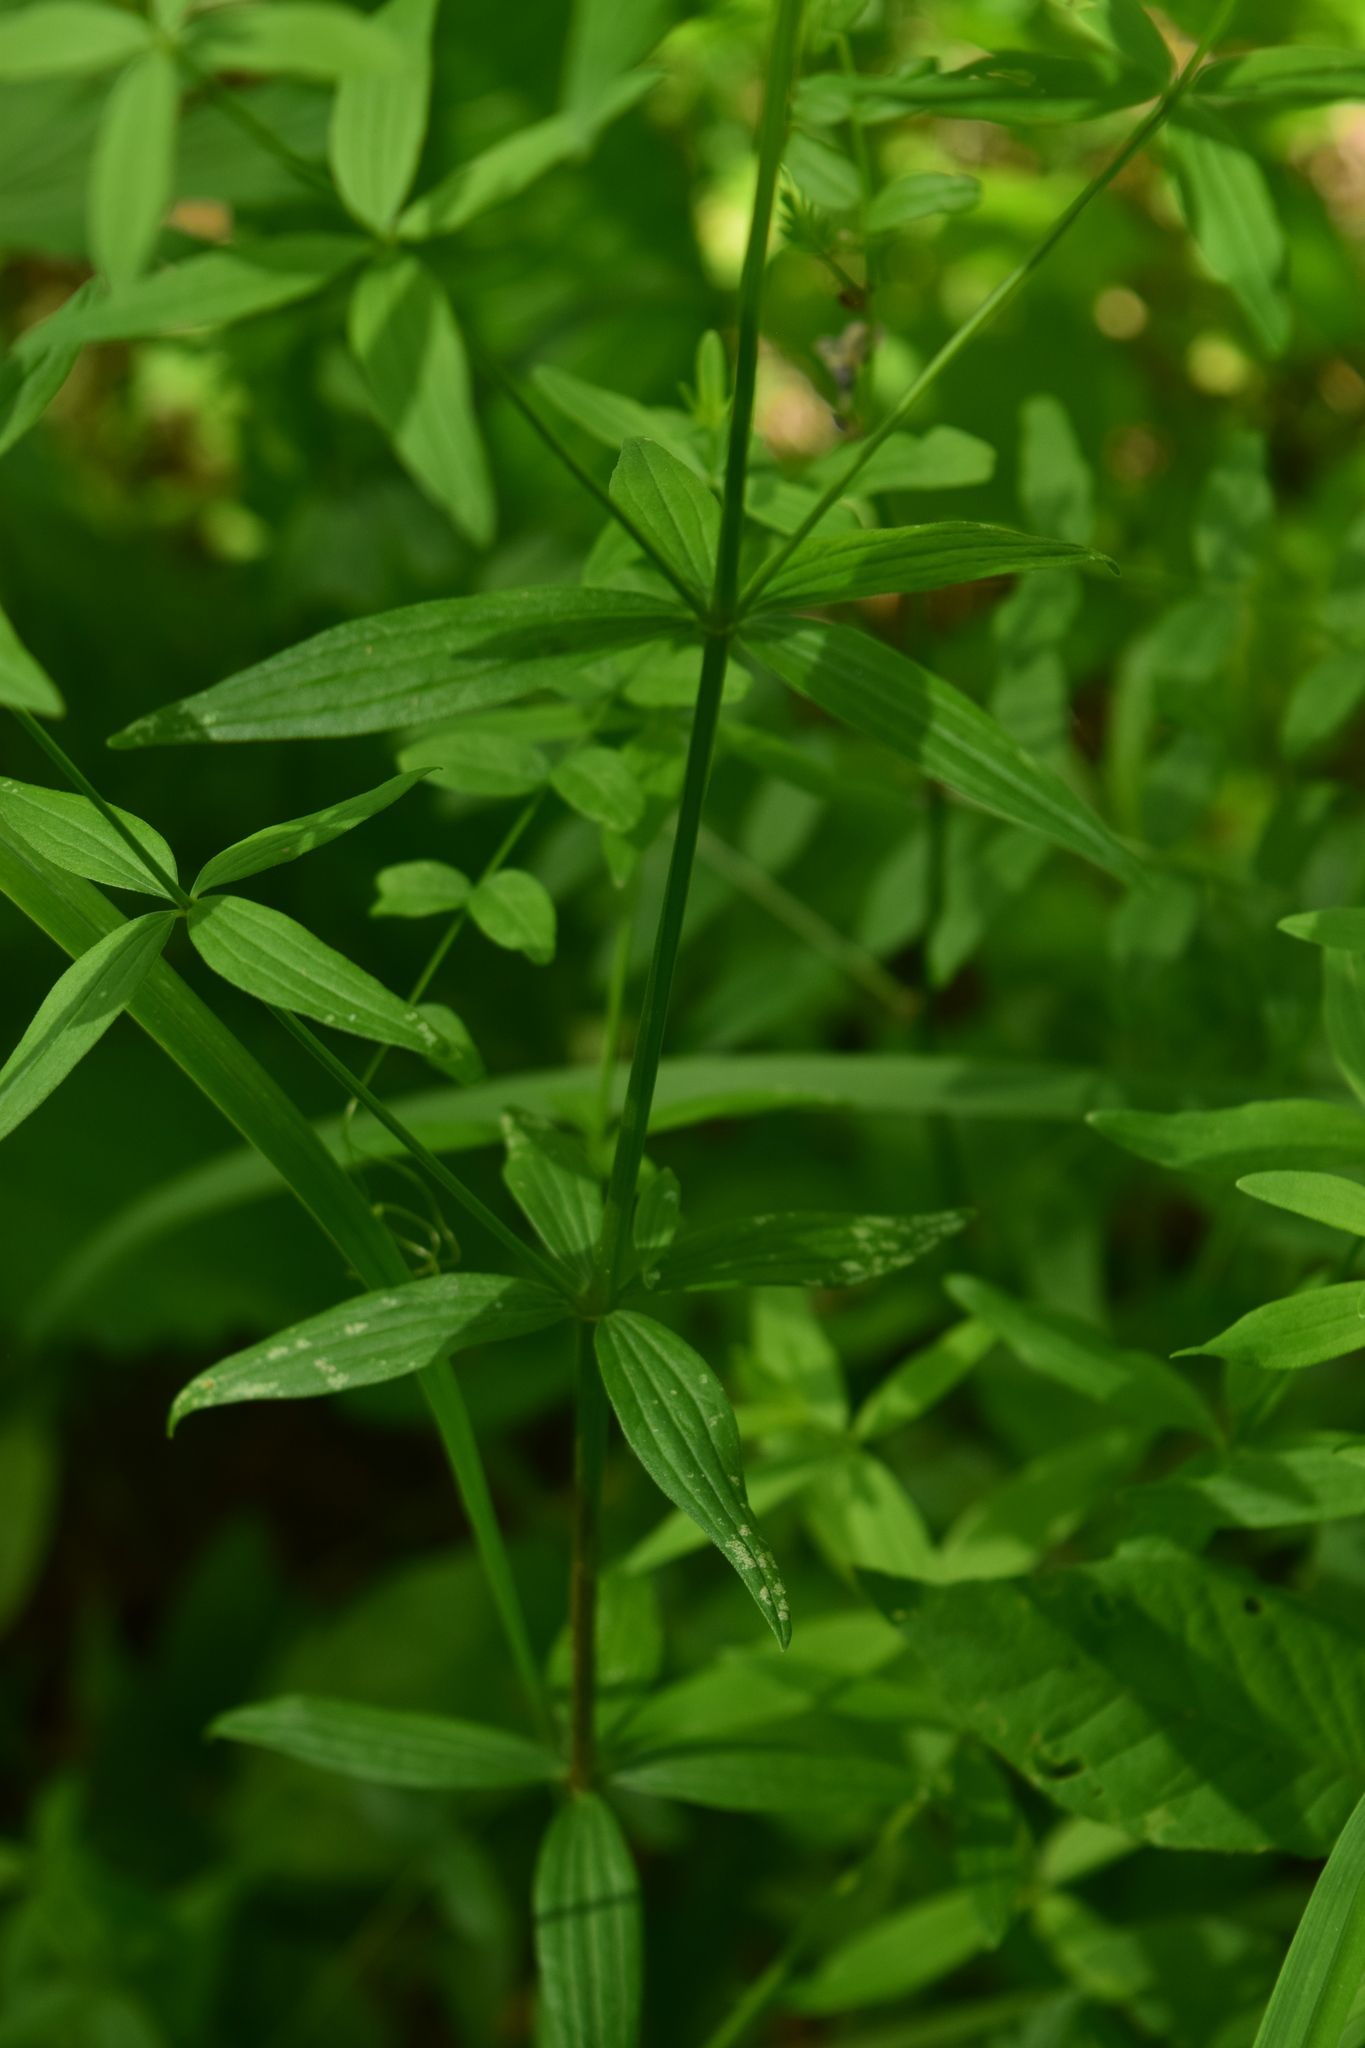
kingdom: Plantae
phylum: Tracheophyta
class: Magnoliopsida
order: Gentianales
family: Rubiaceae
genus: Galium
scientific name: Galium boreale
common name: Northern bedstraw
